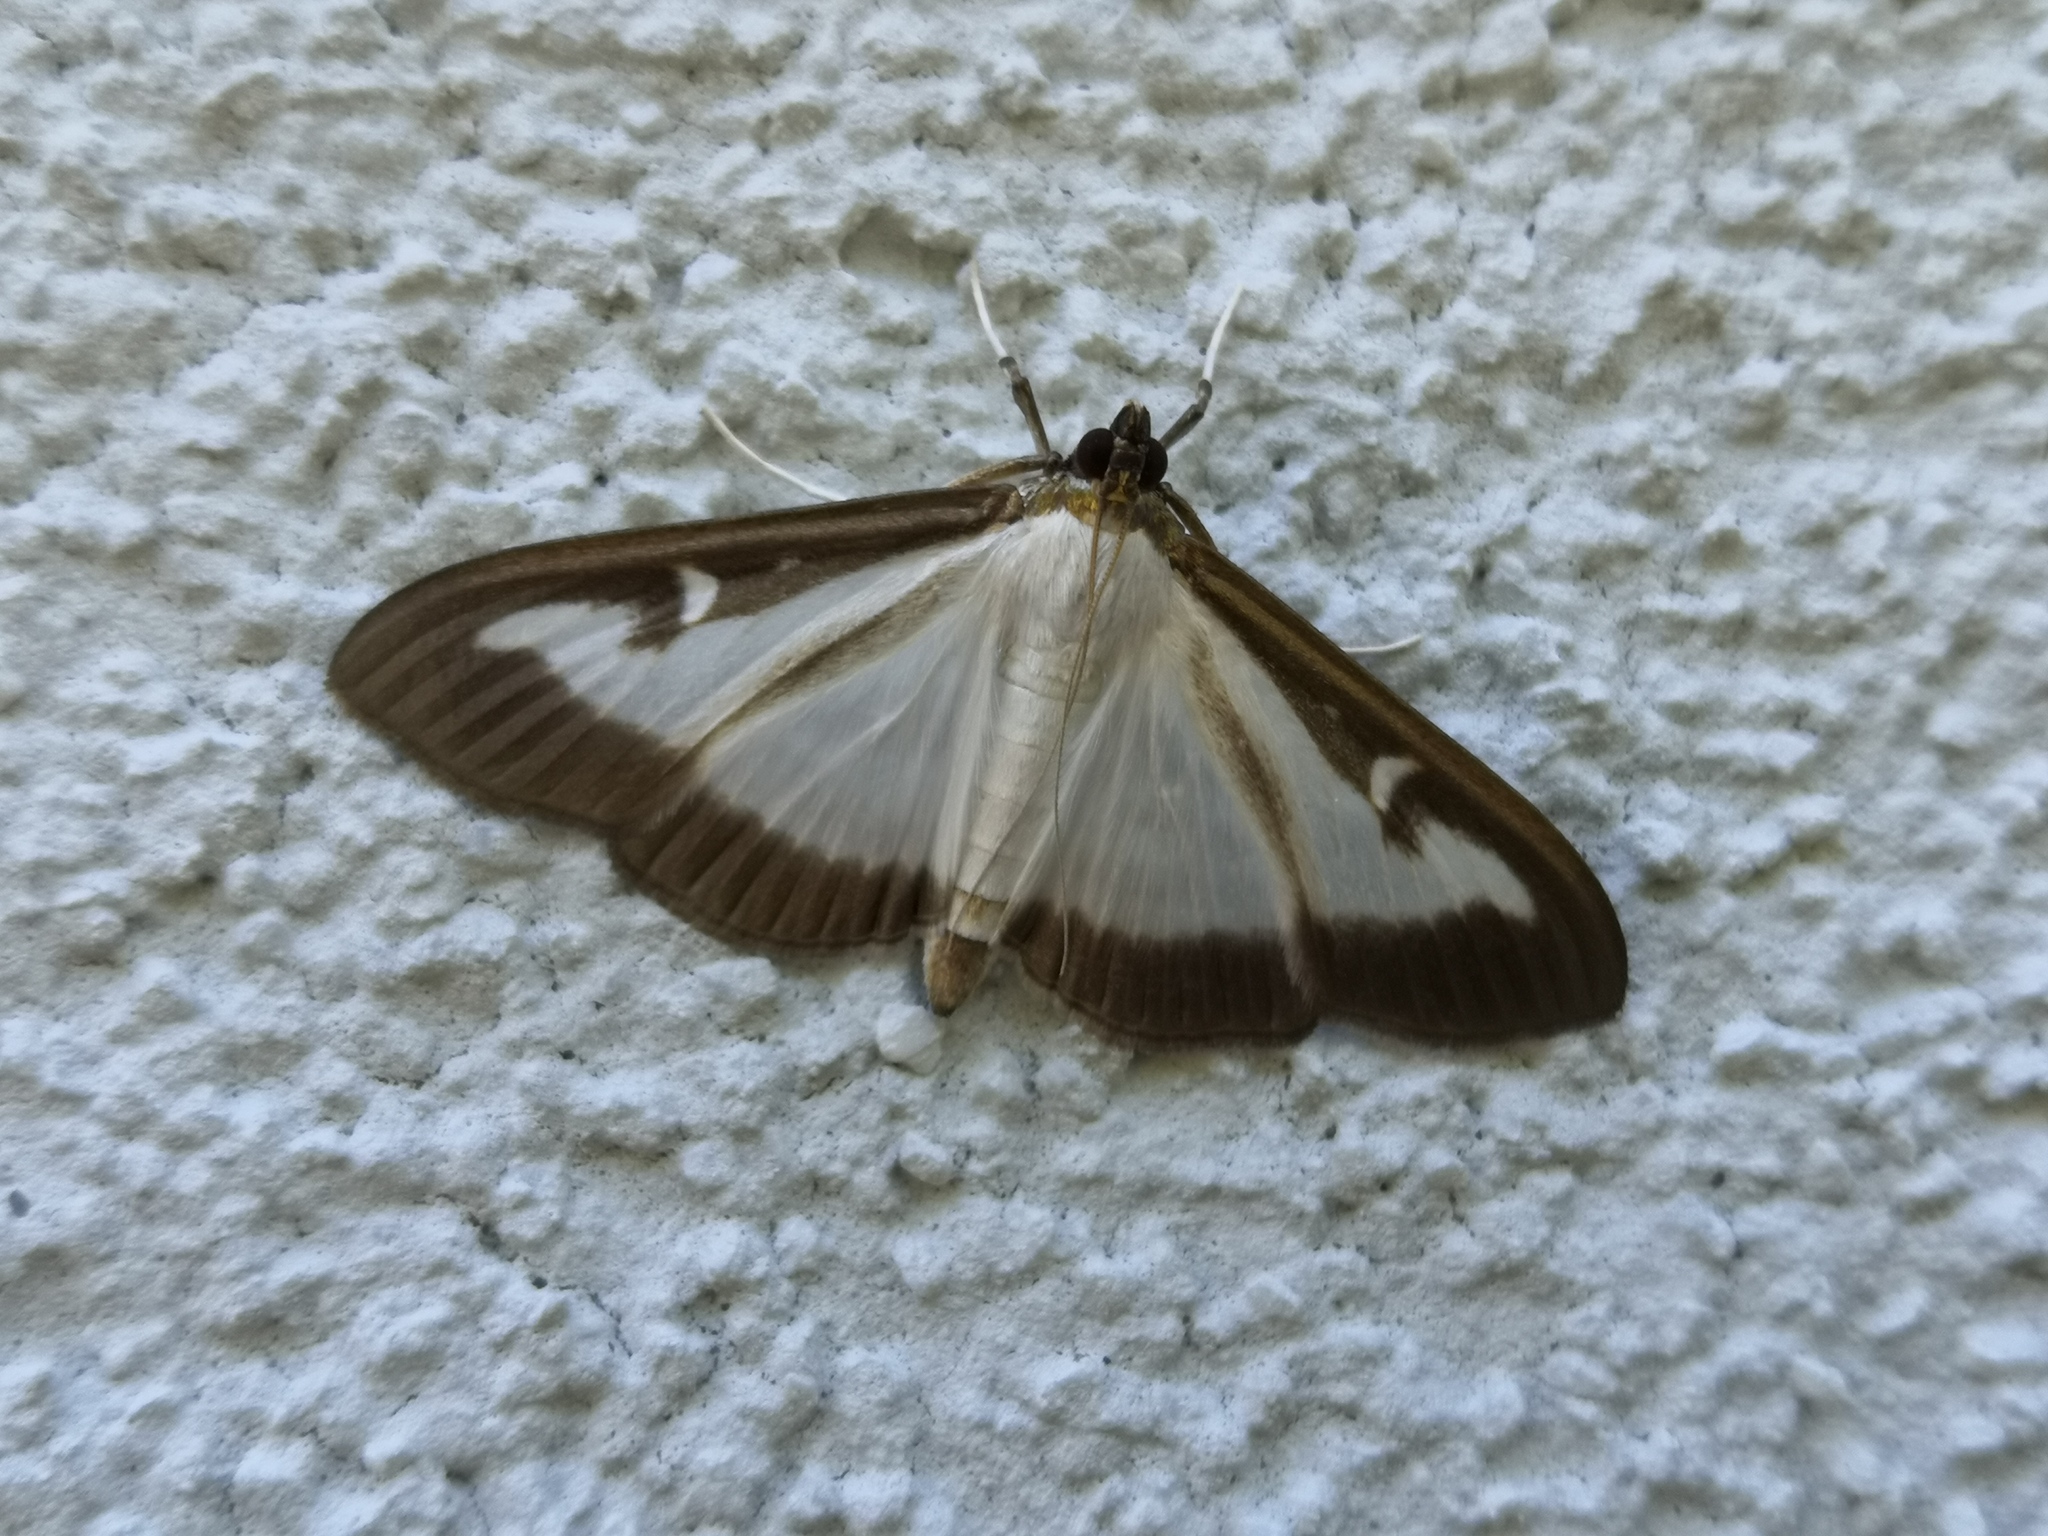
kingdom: Animalia
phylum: Arthropoda
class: Insecta
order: Lepidoptera
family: Crambidae
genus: Cydalima
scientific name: Cydalima perspectalis
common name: Box tree moth
